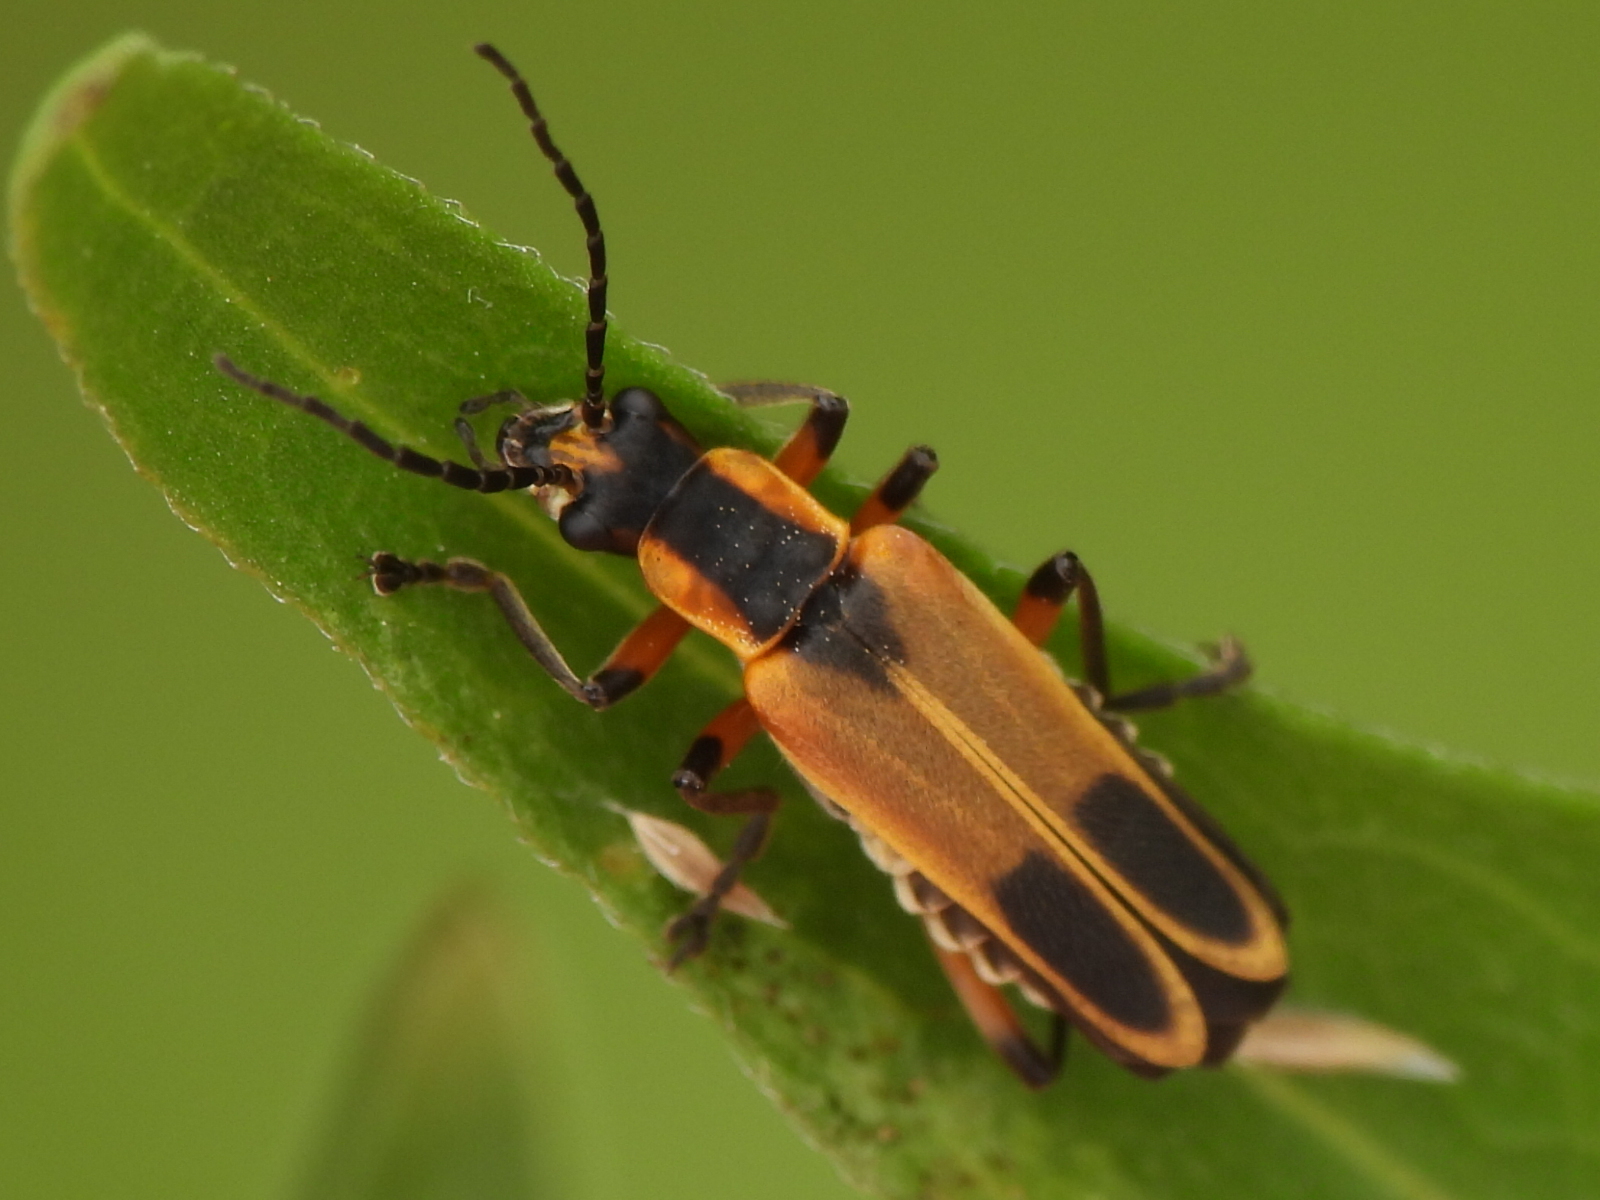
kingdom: Animalia
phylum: Arthropoda
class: Insecta
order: Coleoptera
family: Cantharidae
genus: Chauliognathus
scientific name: Chauliognathus marginatus
